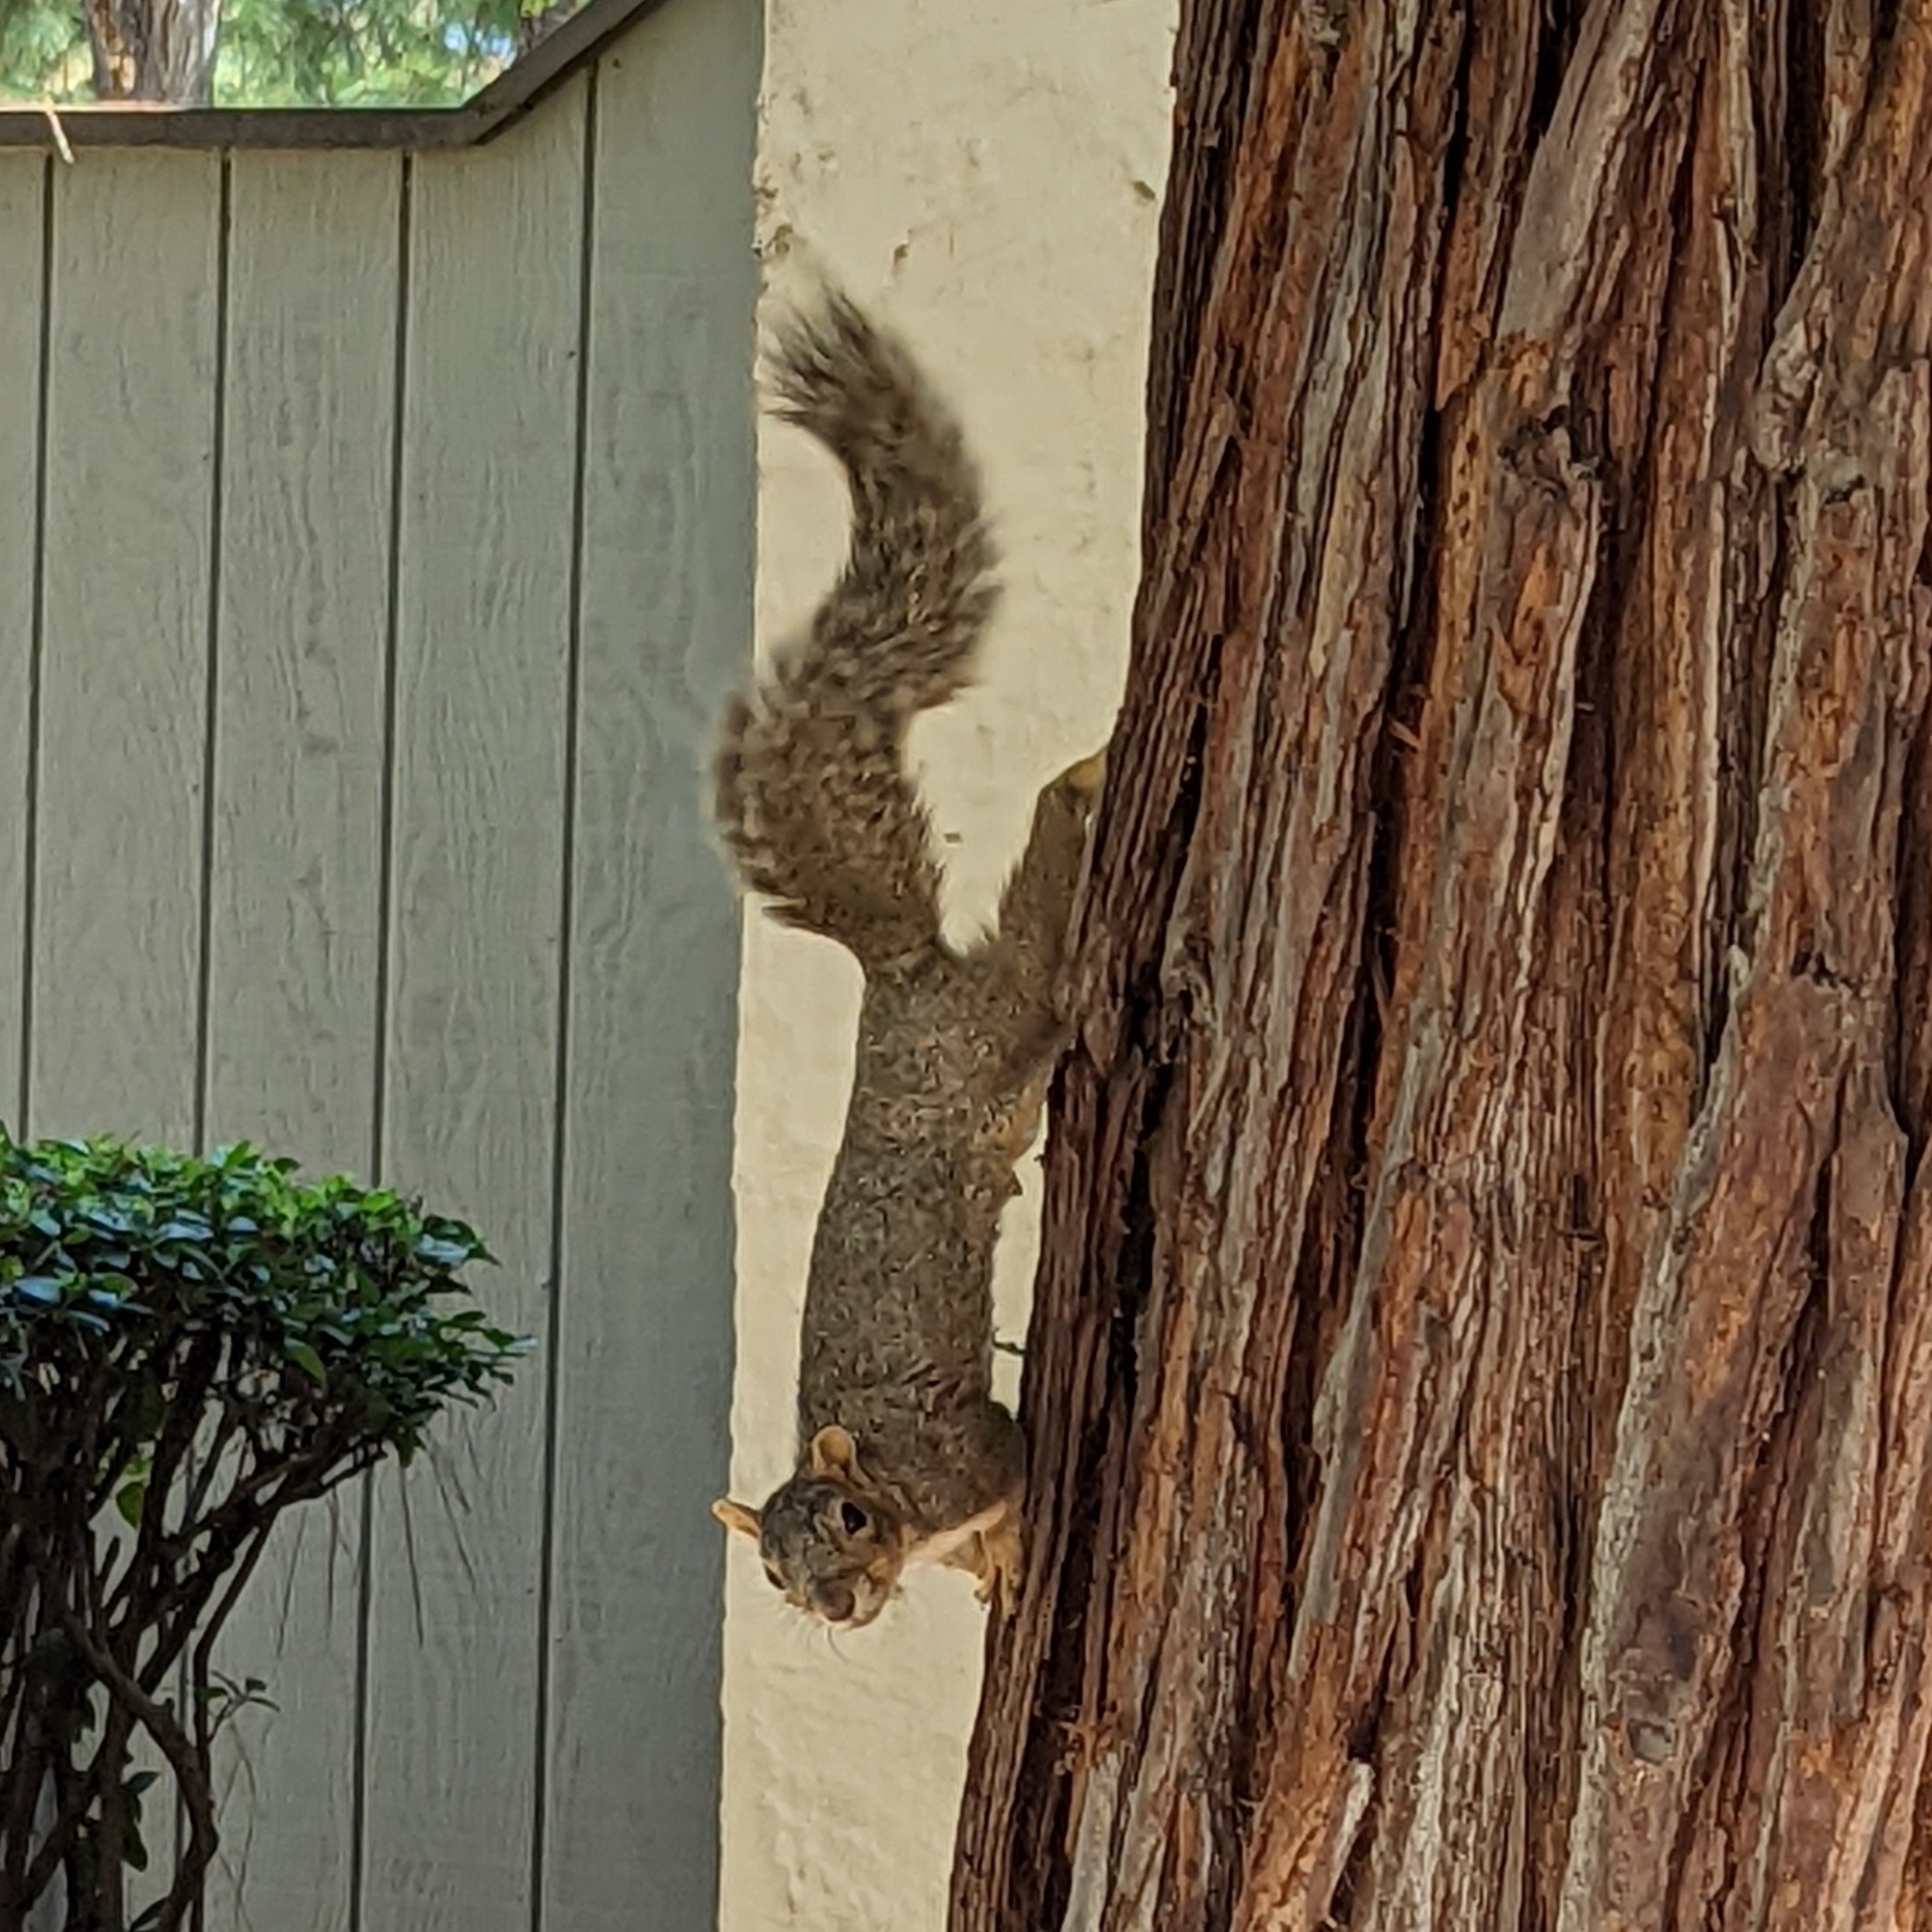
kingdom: Animalia
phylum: Chordata
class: Mammalia
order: Rodentia
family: Sciuridae
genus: Sciurus
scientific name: Sciurus niger
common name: Fox squirrel
